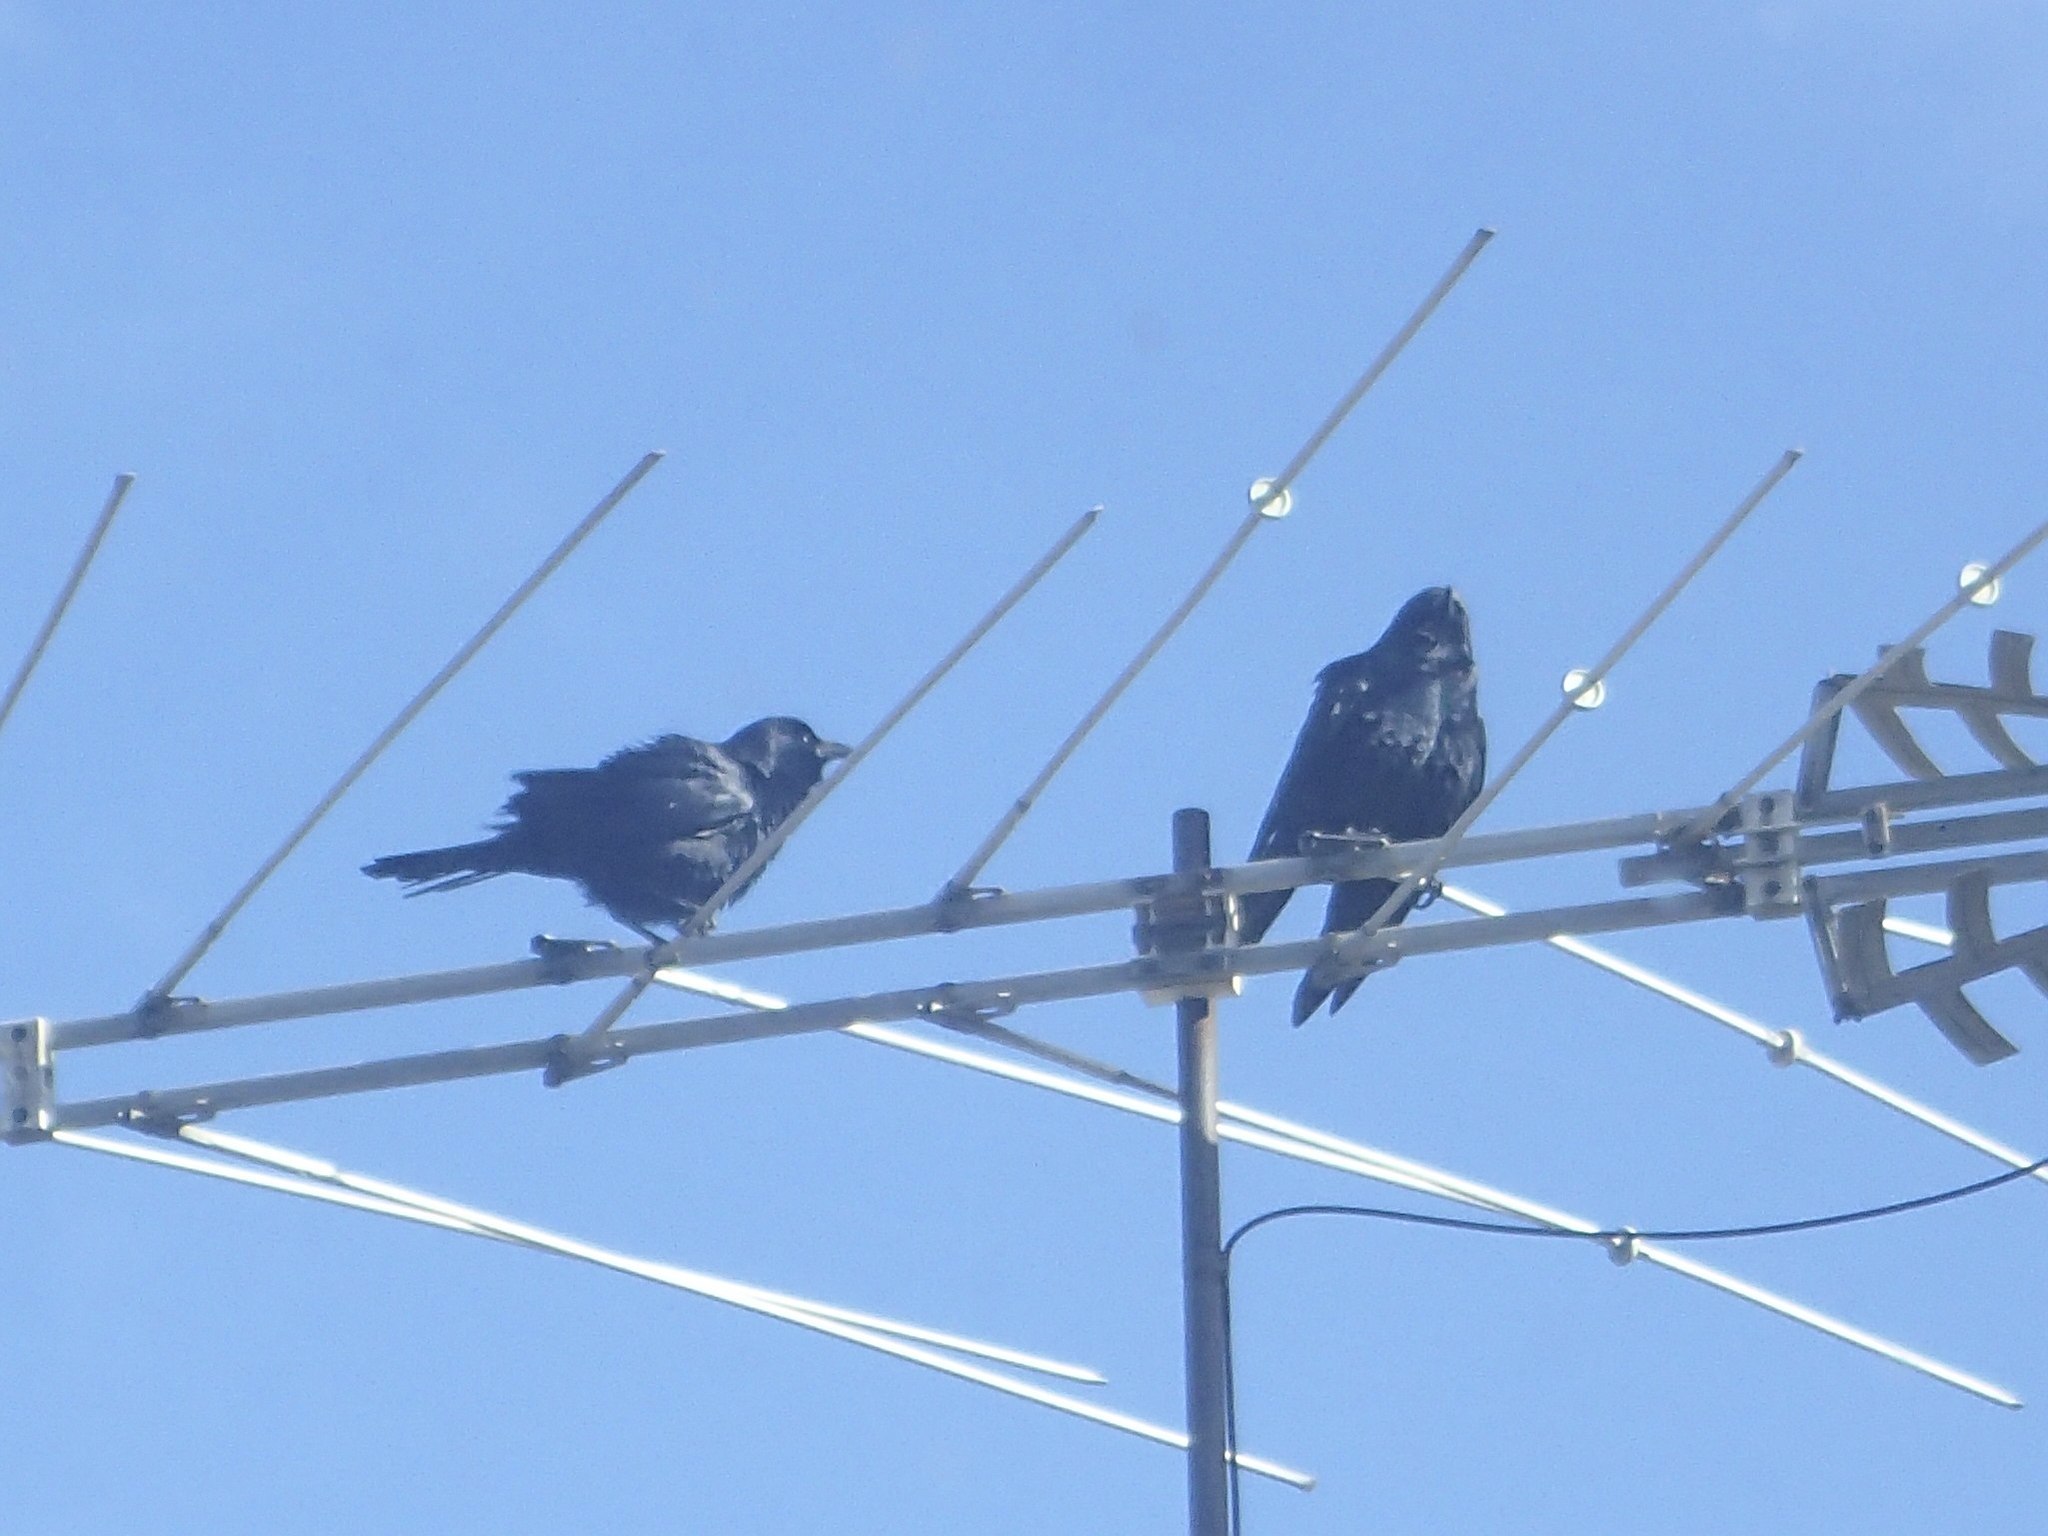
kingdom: Animalia
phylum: Chordata
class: Aves
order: Passeriformes
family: Corvidae
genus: Corvus
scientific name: Corvus ossifragus
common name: Fish crow
